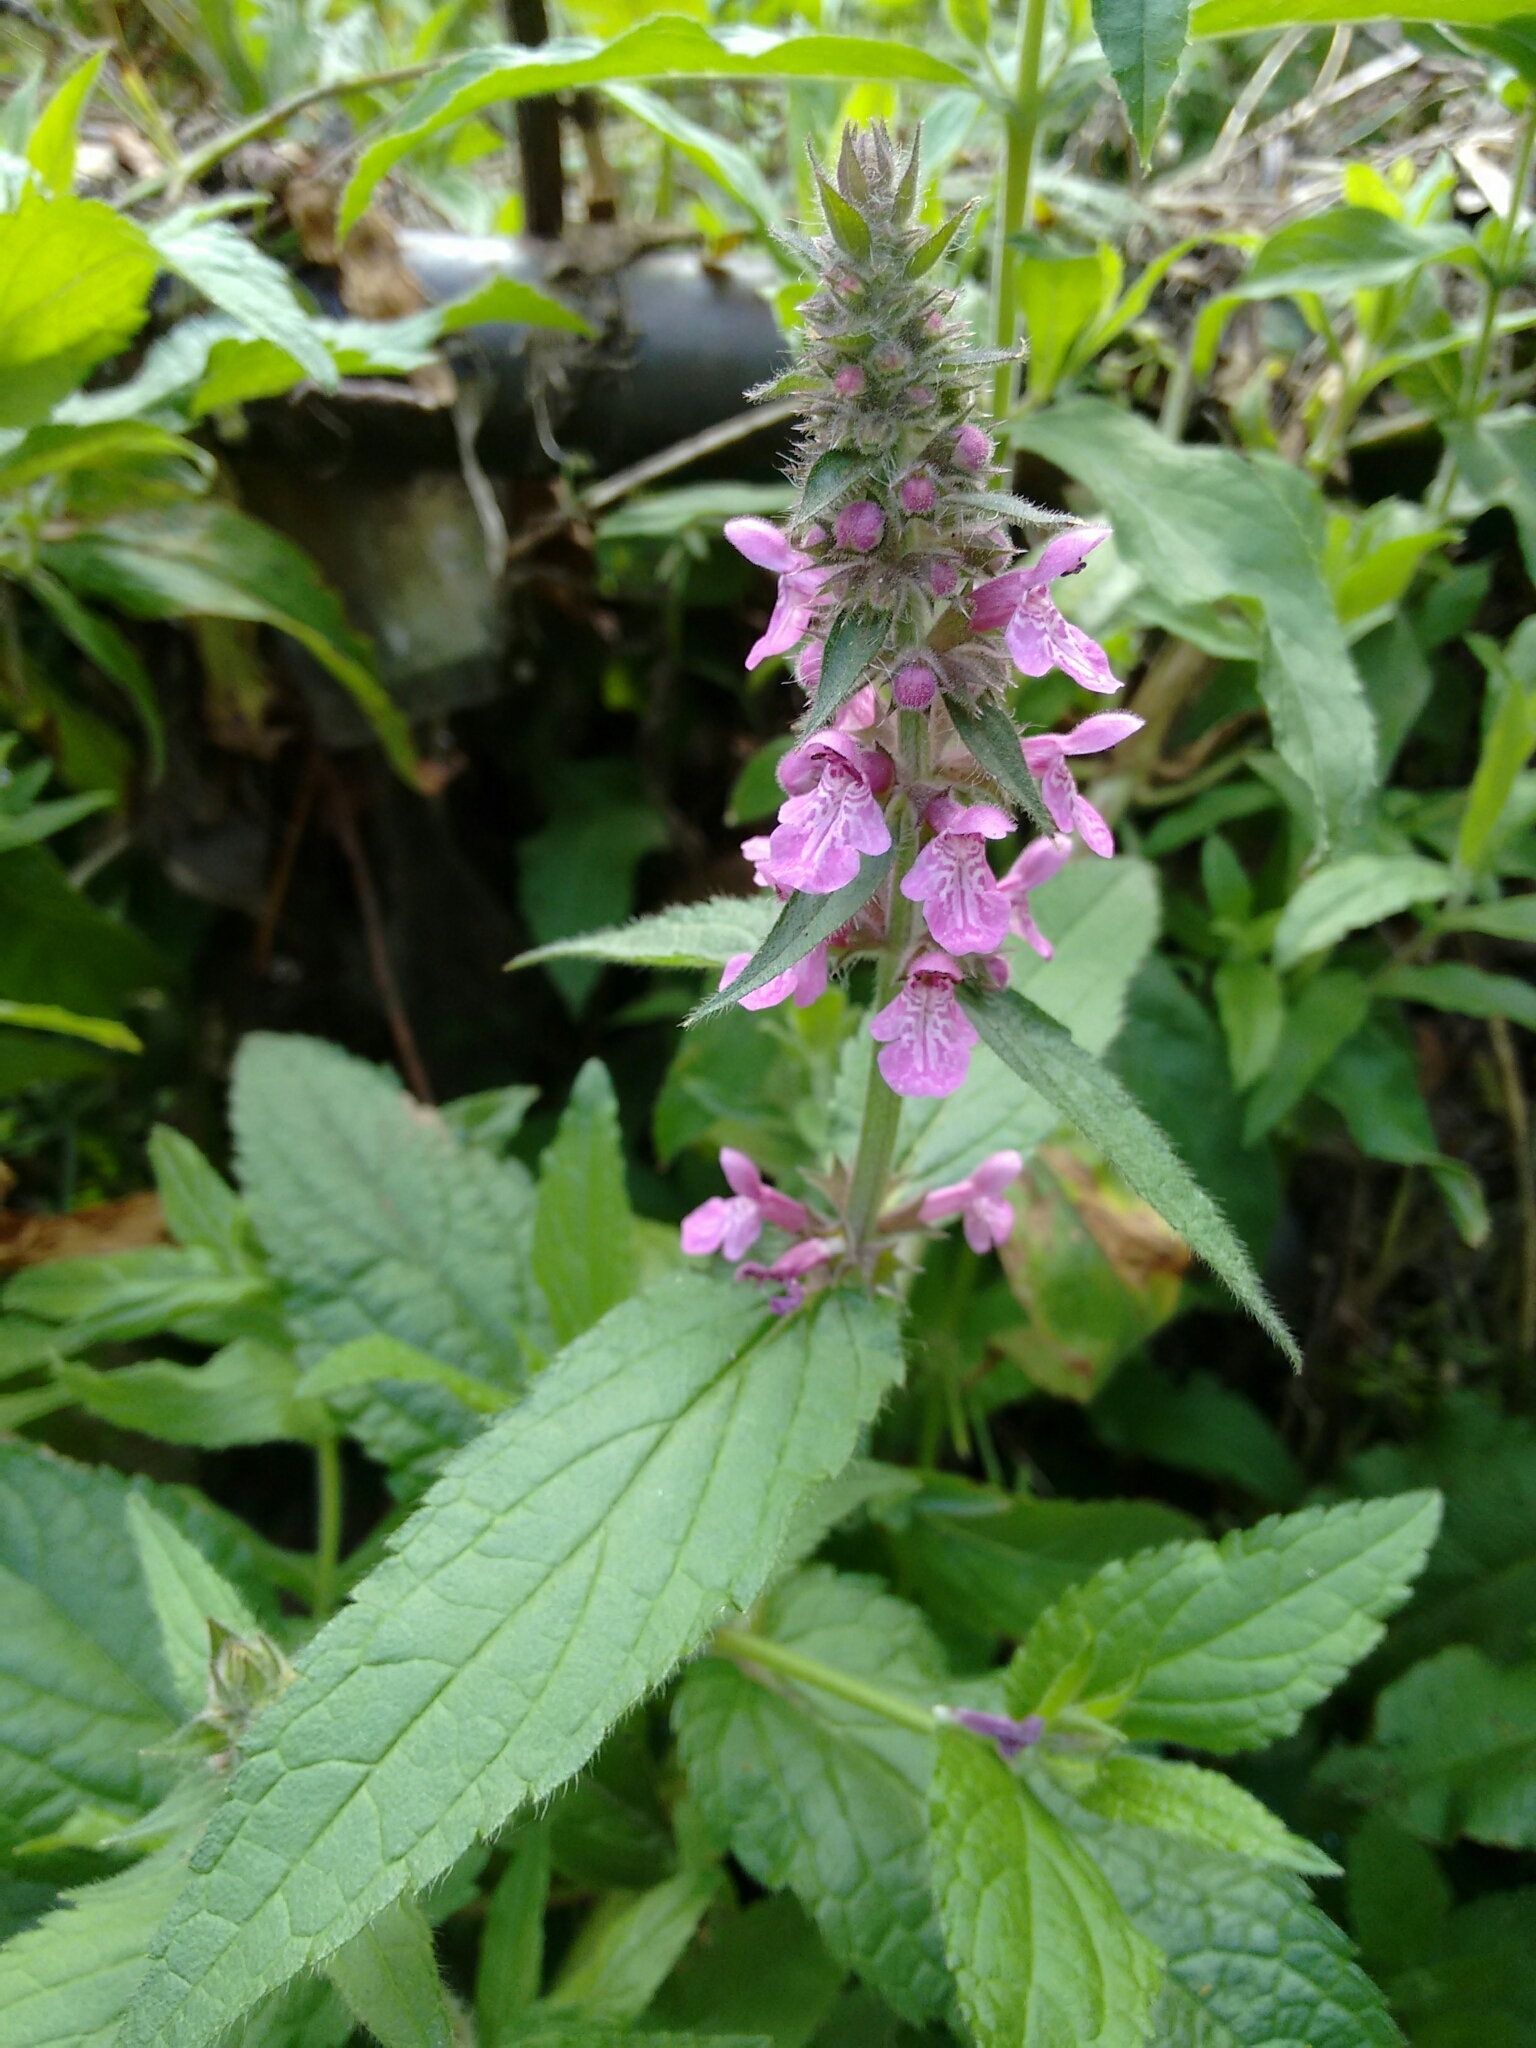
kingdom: Plantae
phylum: Tracheophyta
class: Magnoliopsida
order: Lamiales
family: Lamiaceae
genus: Stachys
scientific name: Stachys palustris
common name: Marsh woundwort
